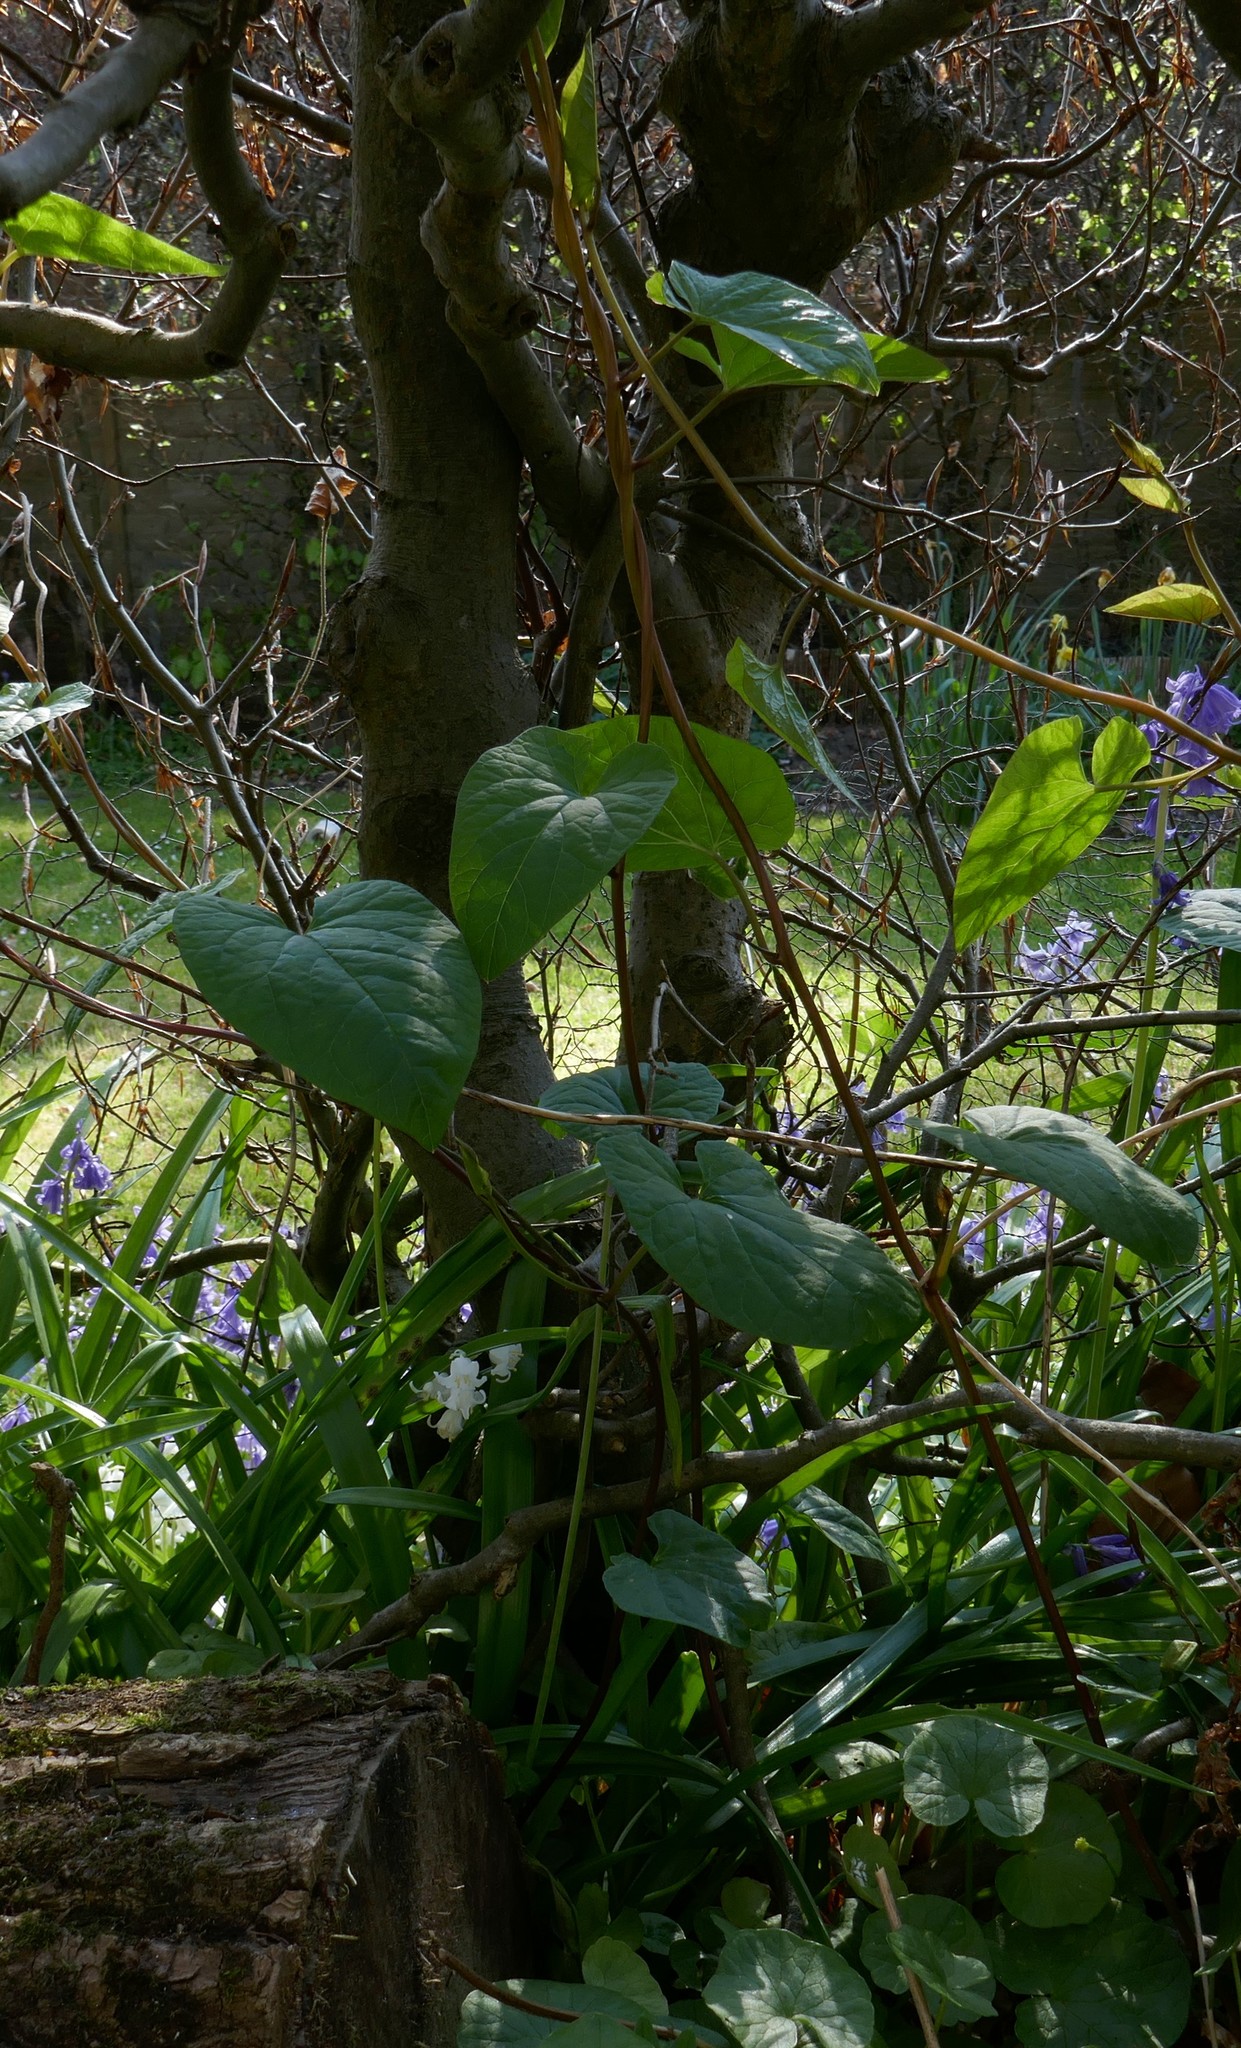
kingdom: Plantae
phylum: Tracheophyta
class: Magnoliopsida
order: Solanales
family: Convolvulaceae
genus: Calystegia
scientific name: Calystegia
